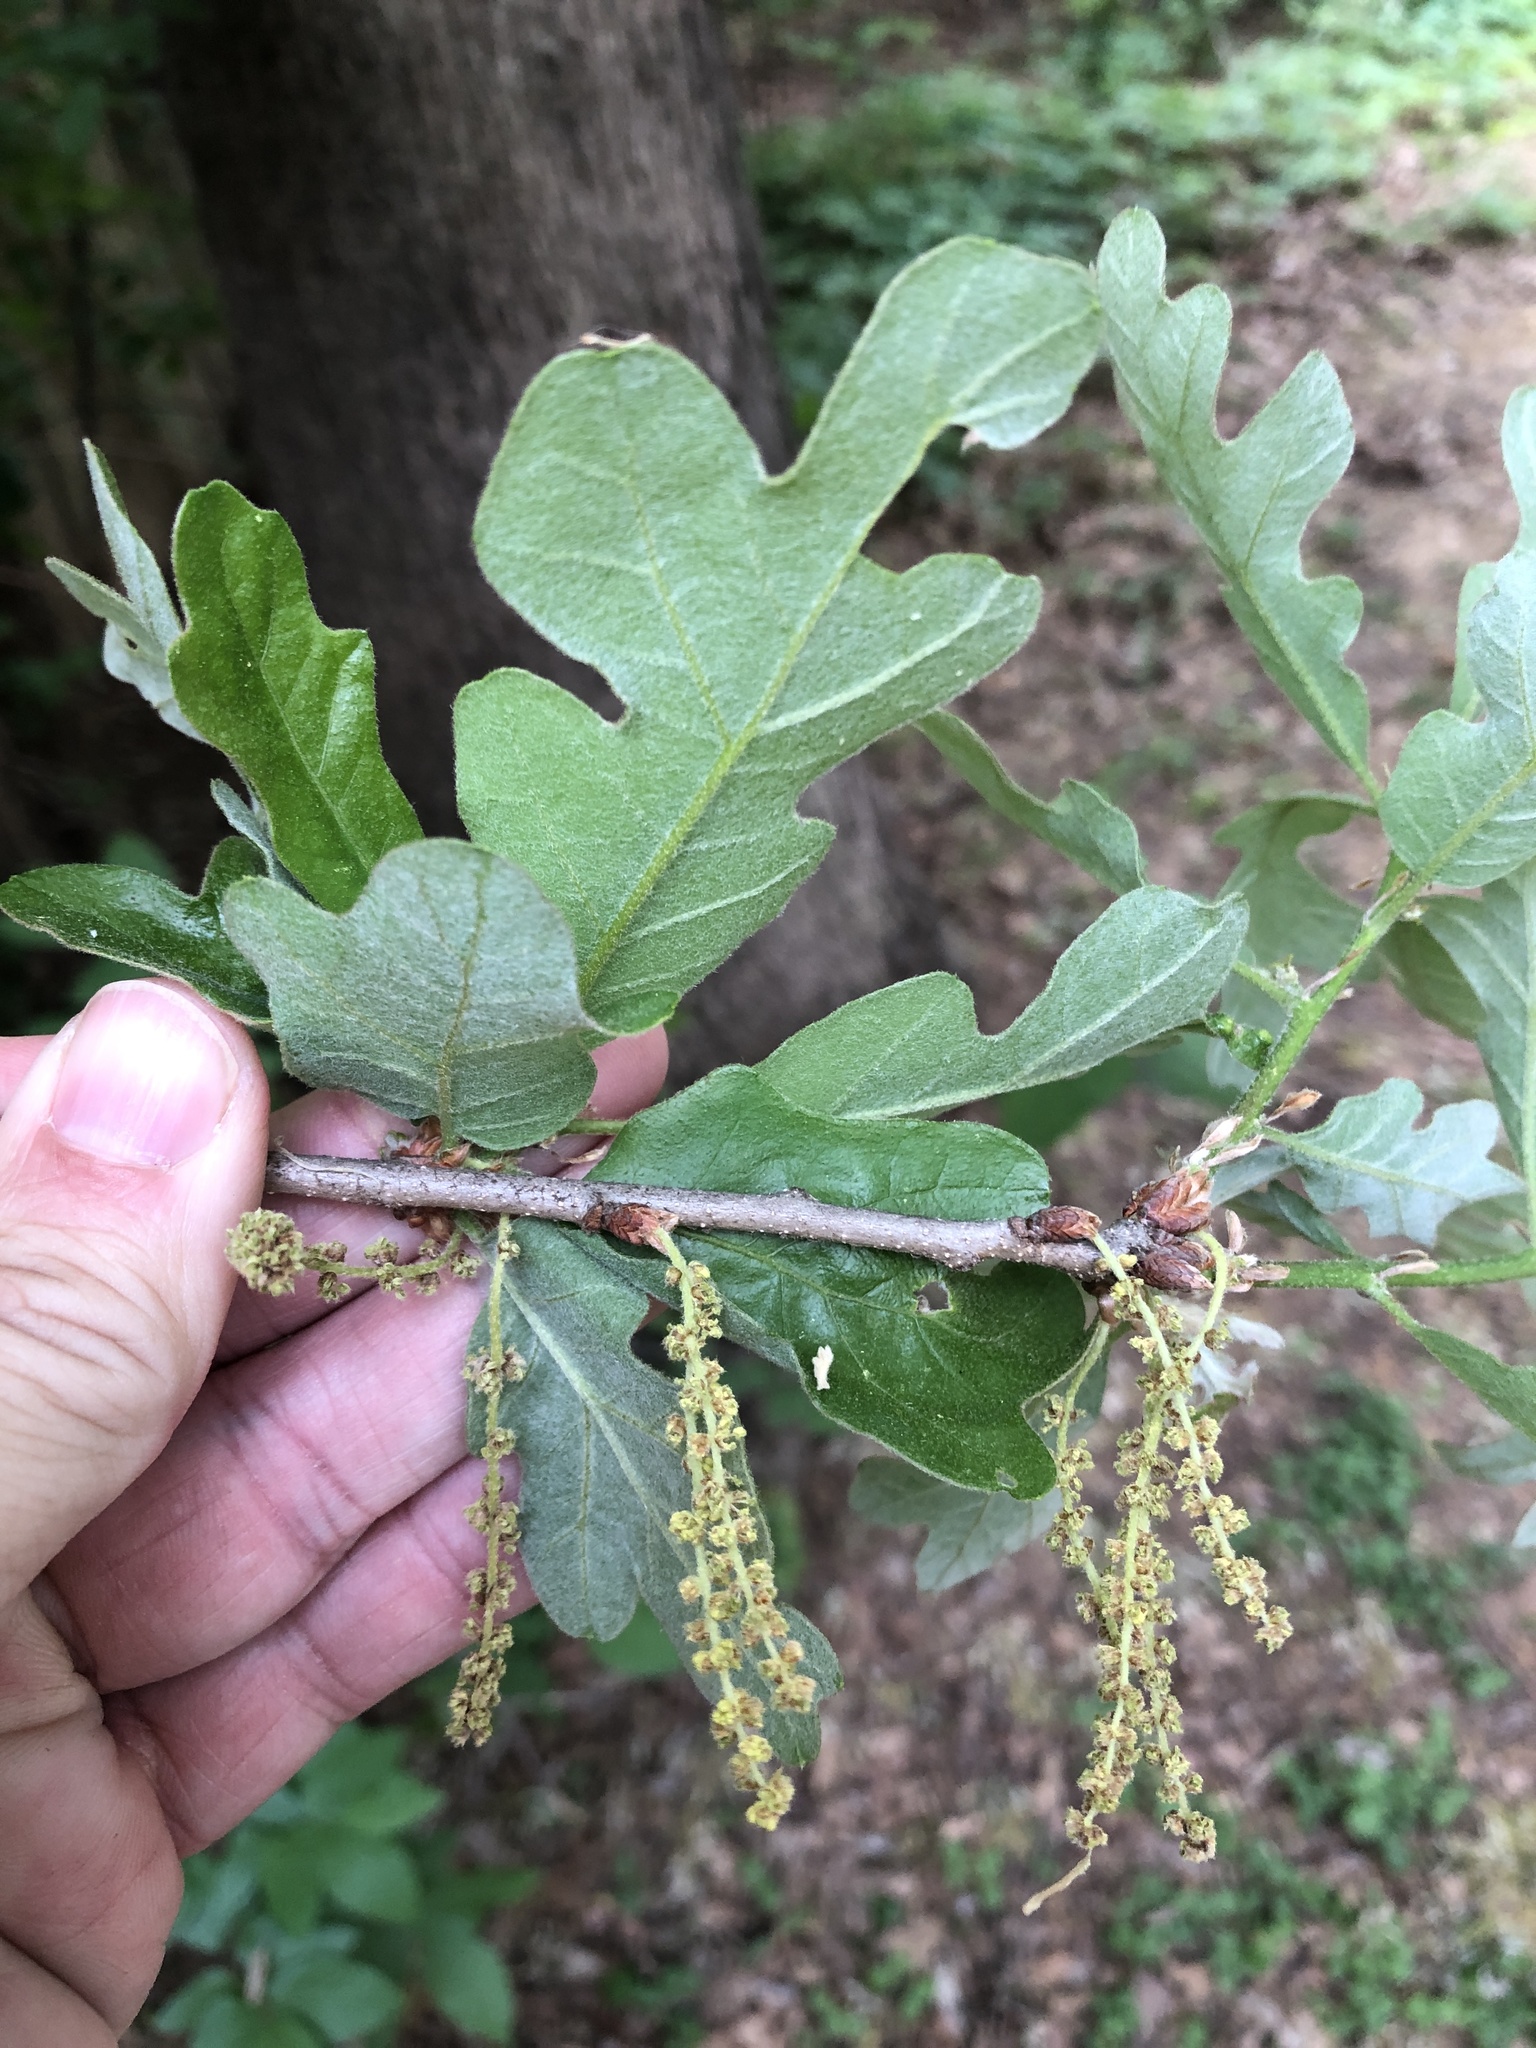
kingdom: Plantae
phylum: Tracheophyta
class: Magnoliopsida
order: Fagales
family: Fagaceae
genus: Quercus
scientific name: Quercus stellata
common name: Post oak
